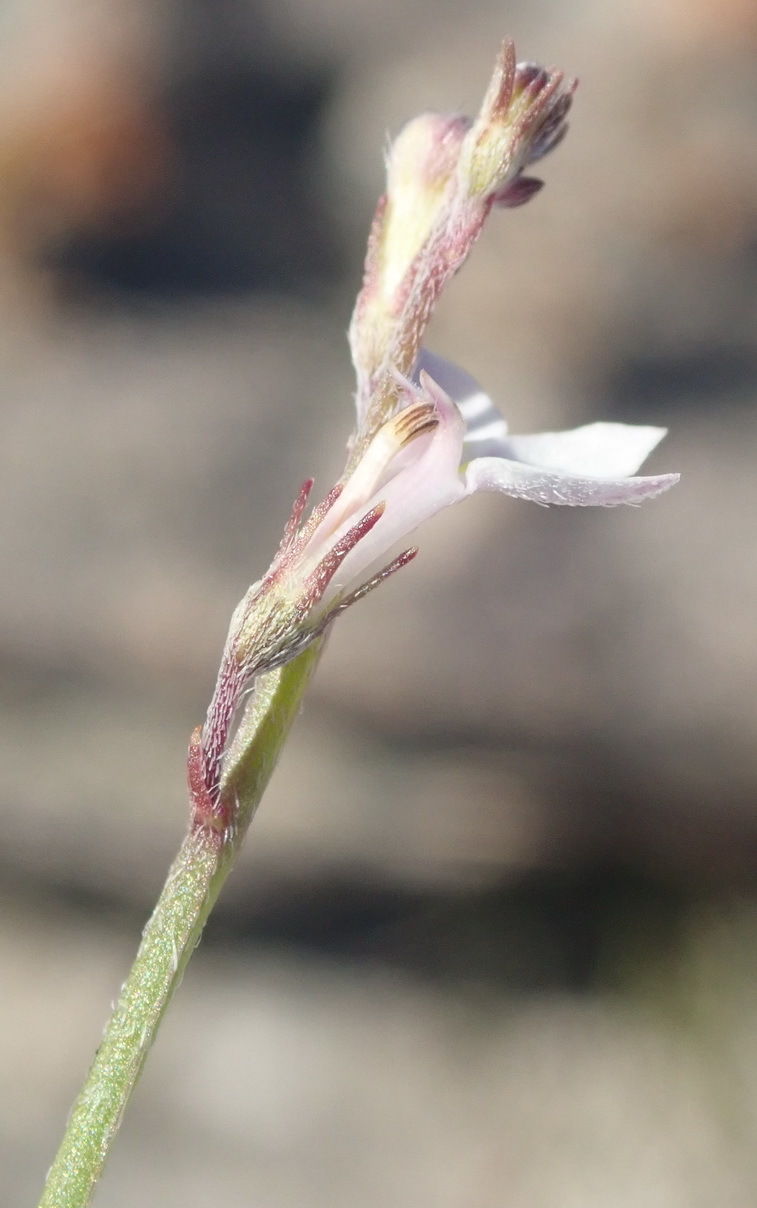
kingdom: Plantae
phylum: Tracheophyta
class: Magnoliopsida
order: Asterales
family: Campanulaceae
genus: Lobelia
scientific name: Lobelia patula
